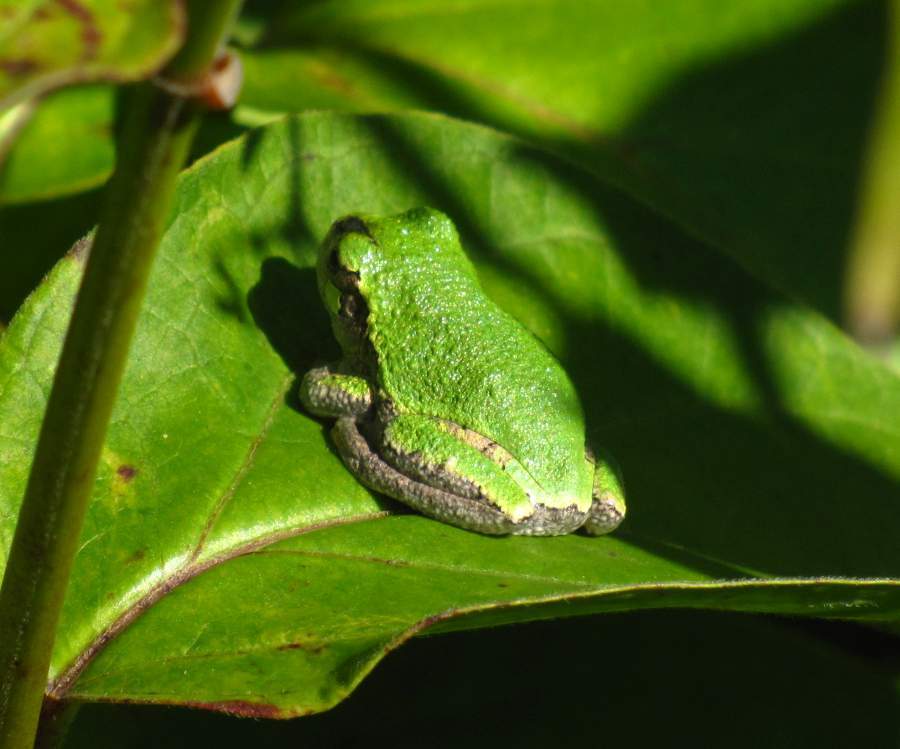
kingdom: Animalia
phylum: Chordata
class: Amphibia
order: Anura
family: Hylidae
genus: Dryophytes
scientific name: Dryophytes versicolor
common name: Gray treefrog
